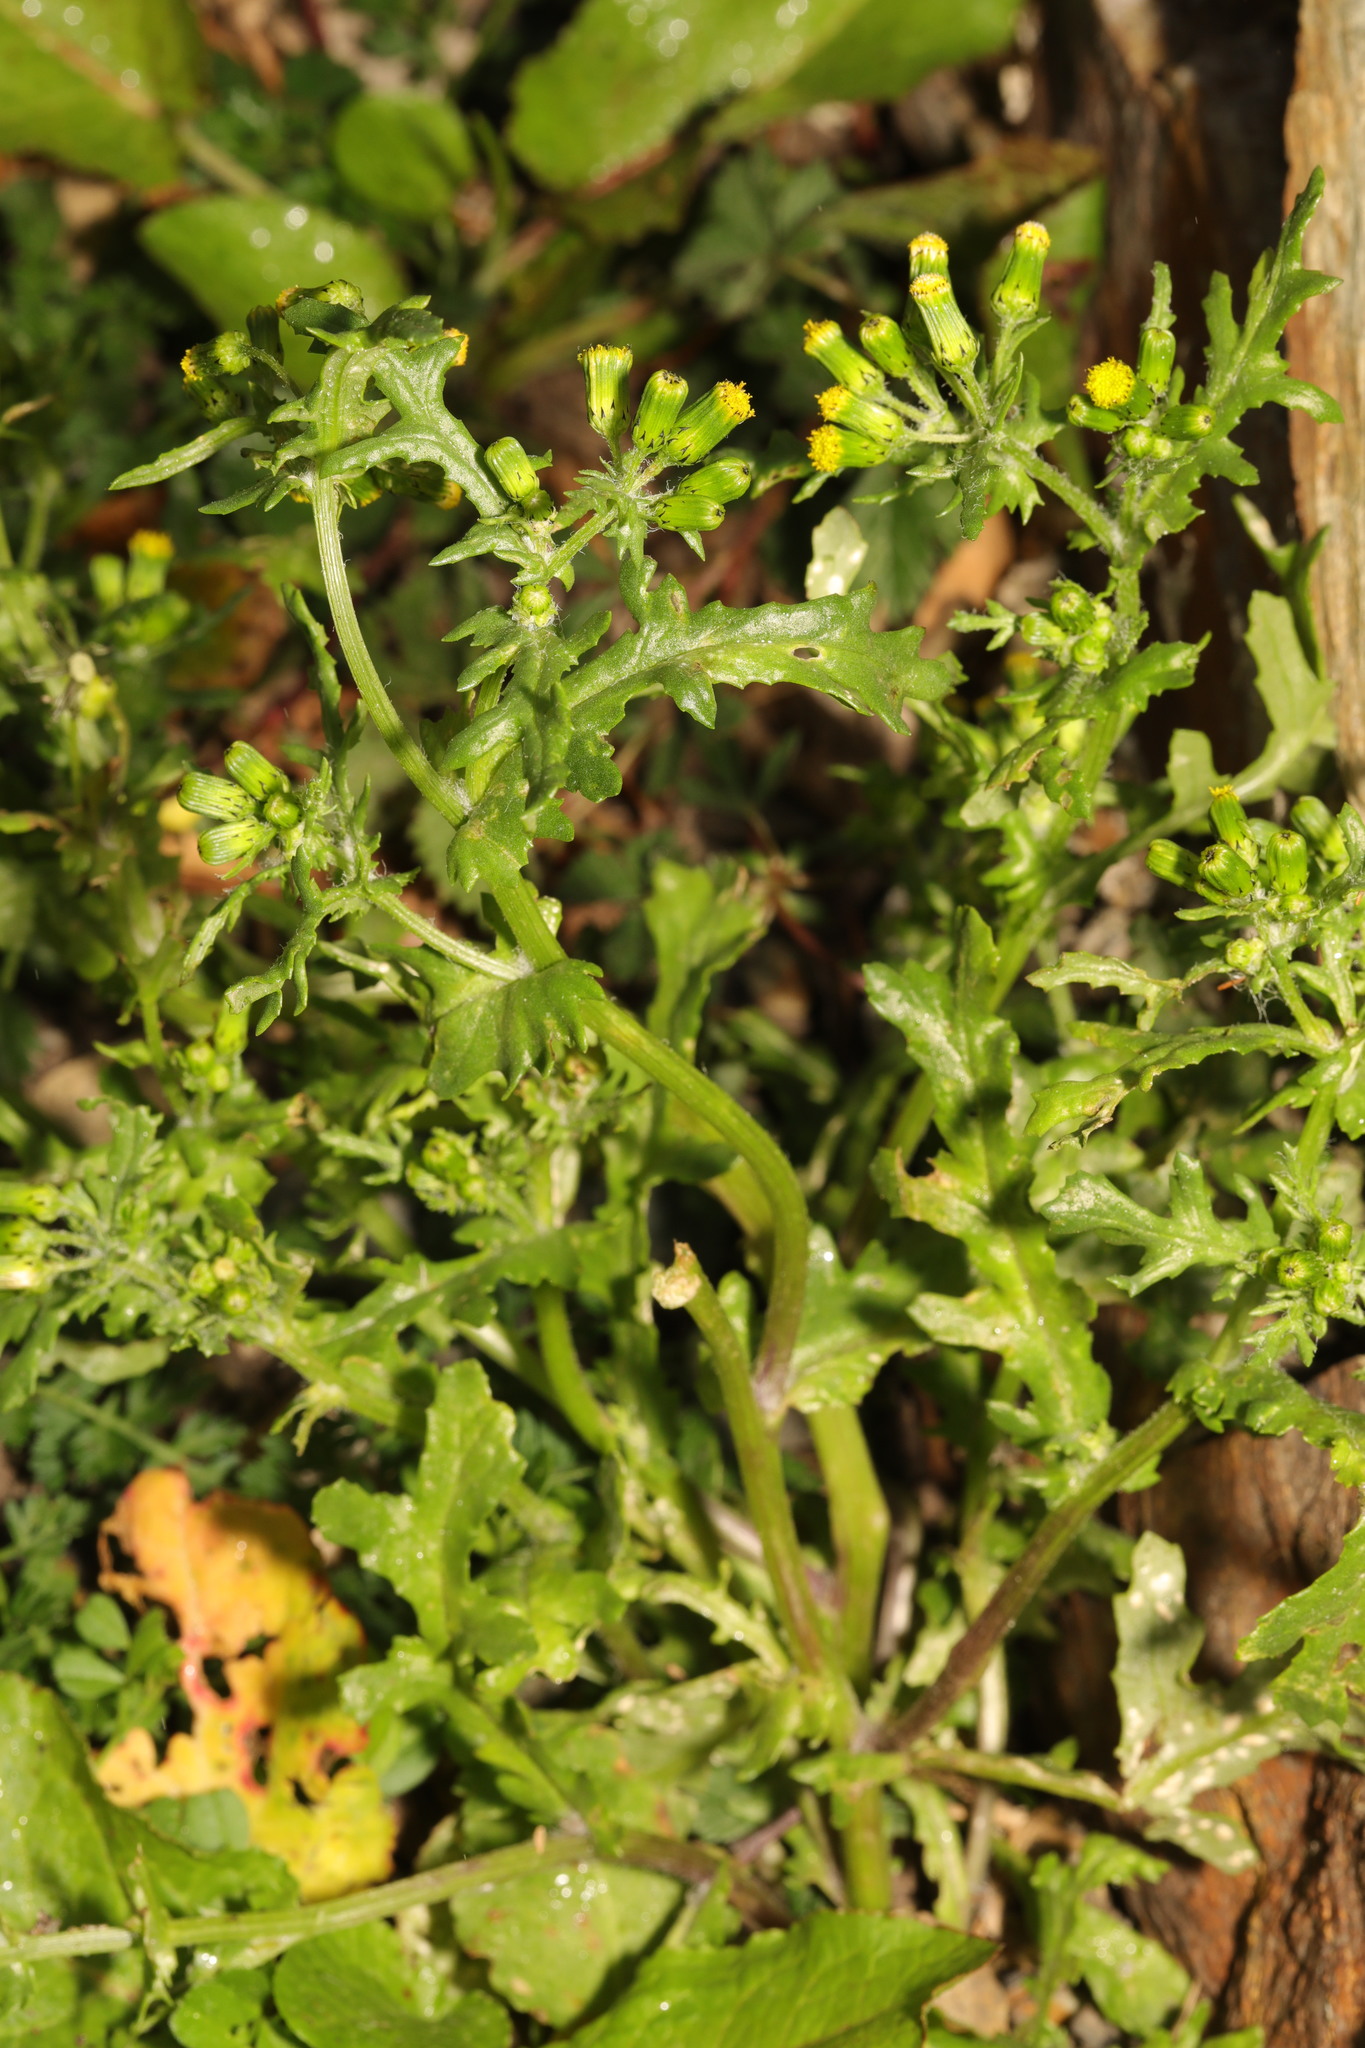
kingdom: Plantae
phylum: Tracheophyta
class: Magnoliopsida
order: Asterales
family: Asteraceae
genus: Senecio
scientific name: Senecio vulgaris
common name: Old-man-in-the-spring
